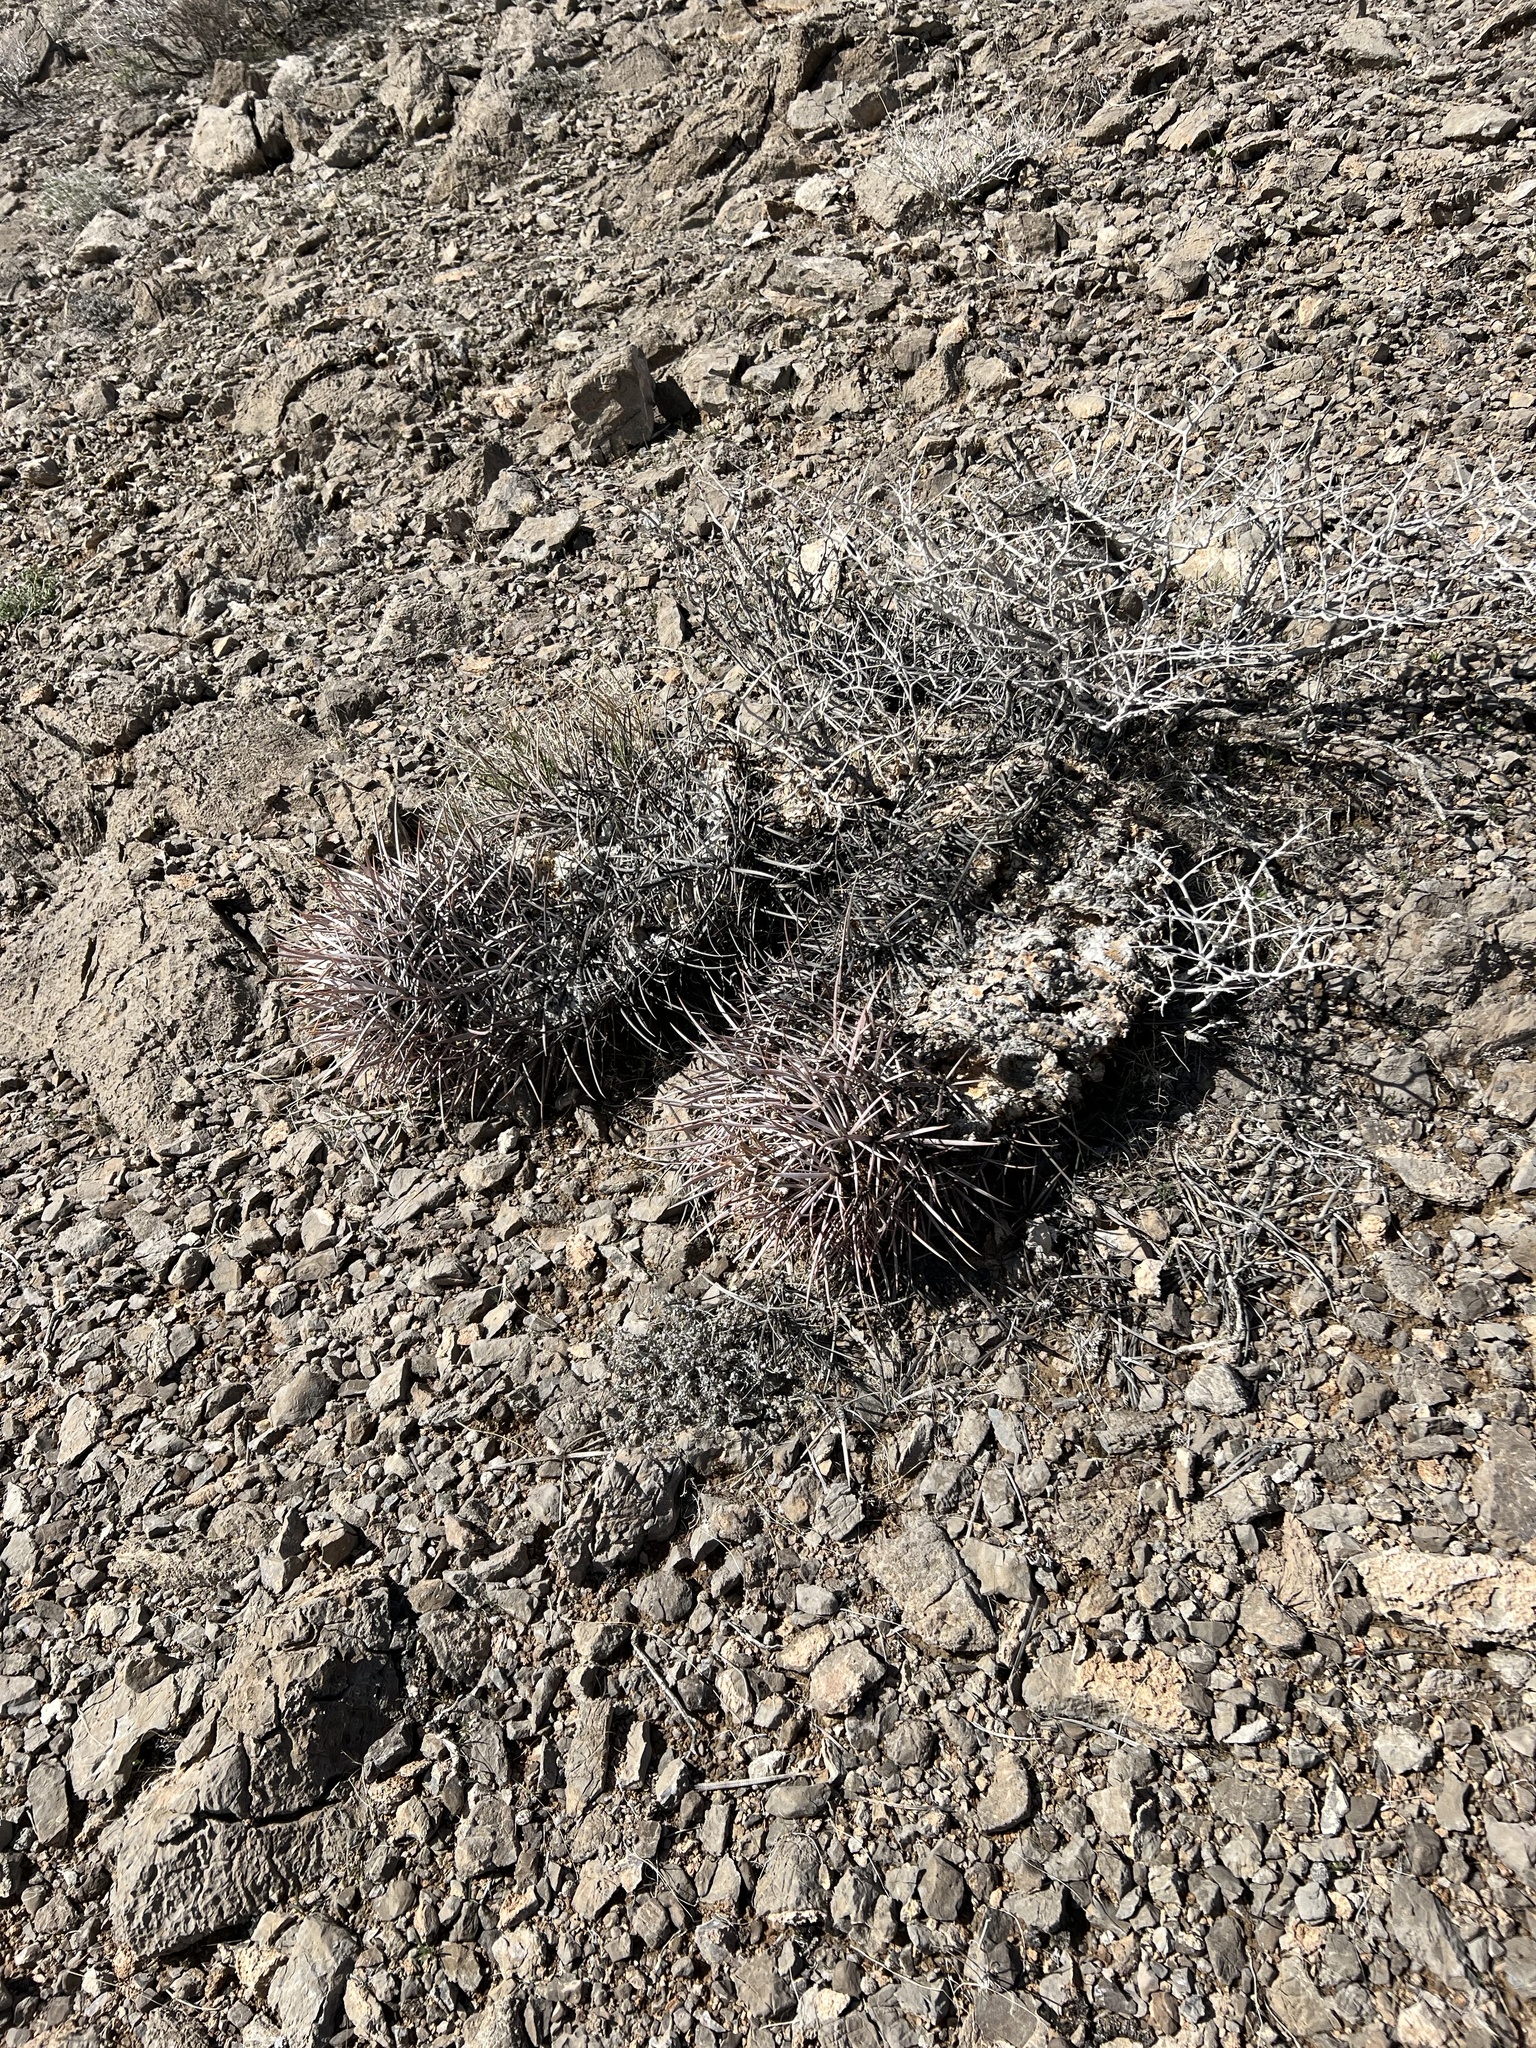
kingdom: Plantae
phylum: Tracheophyta
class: Magnoliopsida
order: Caryophyllales
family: Cactaceae
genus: Echinocactus
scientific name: Echinocactus polycephalus
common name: Cottontop cactus
